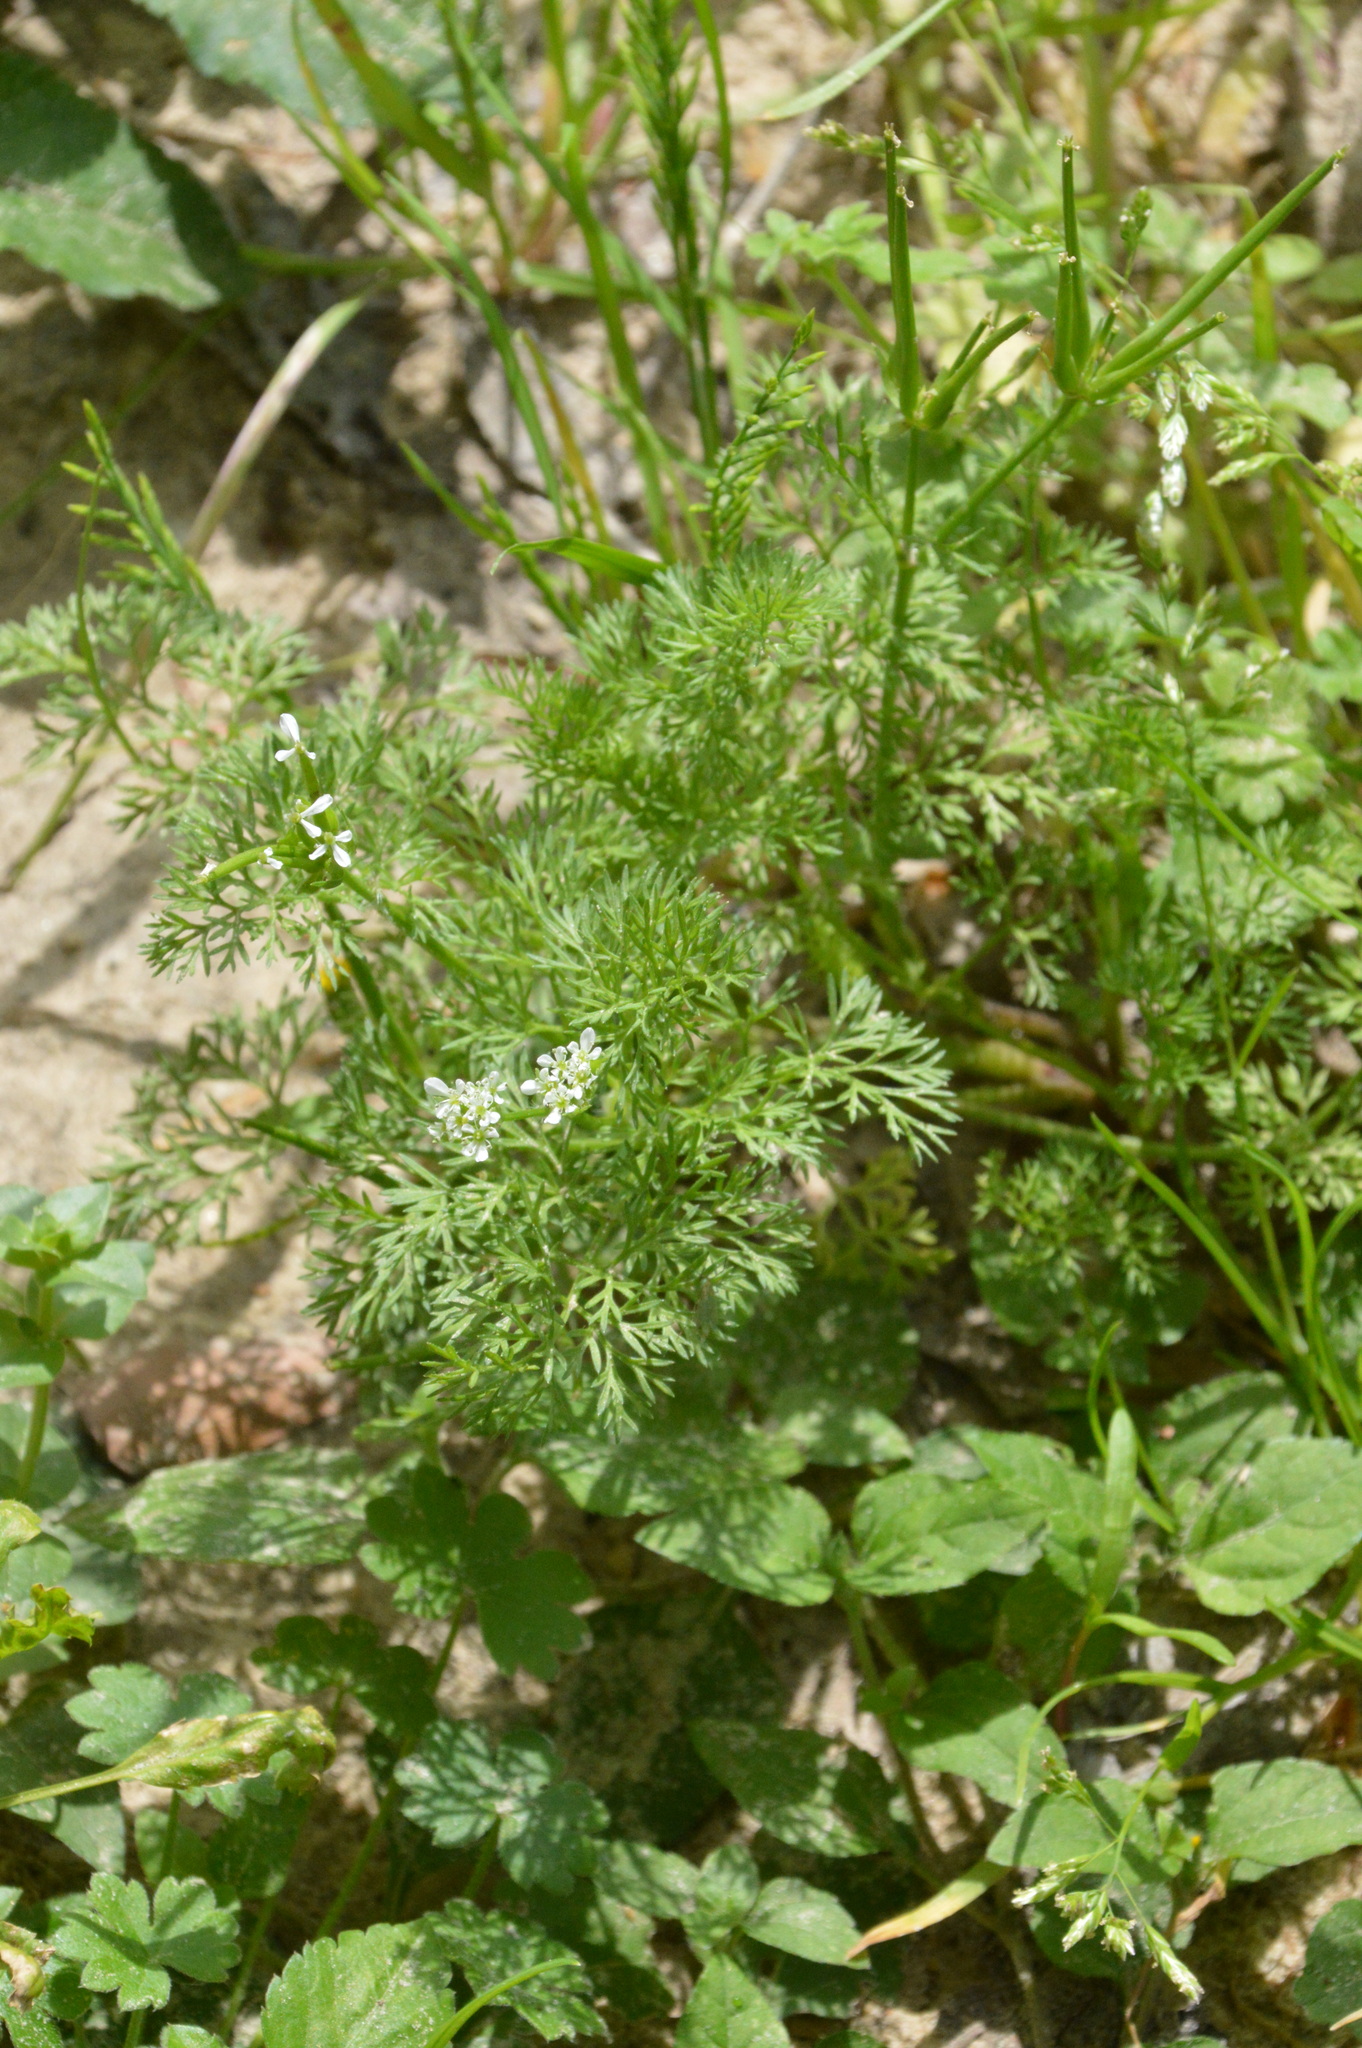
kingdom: Plantae
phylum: Tracheophyta
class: Magnoliopsida
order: Apiales
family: Apiaceae
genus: Scandix
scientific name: Scandix pecten-veneris
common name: Shepherd's-needle
